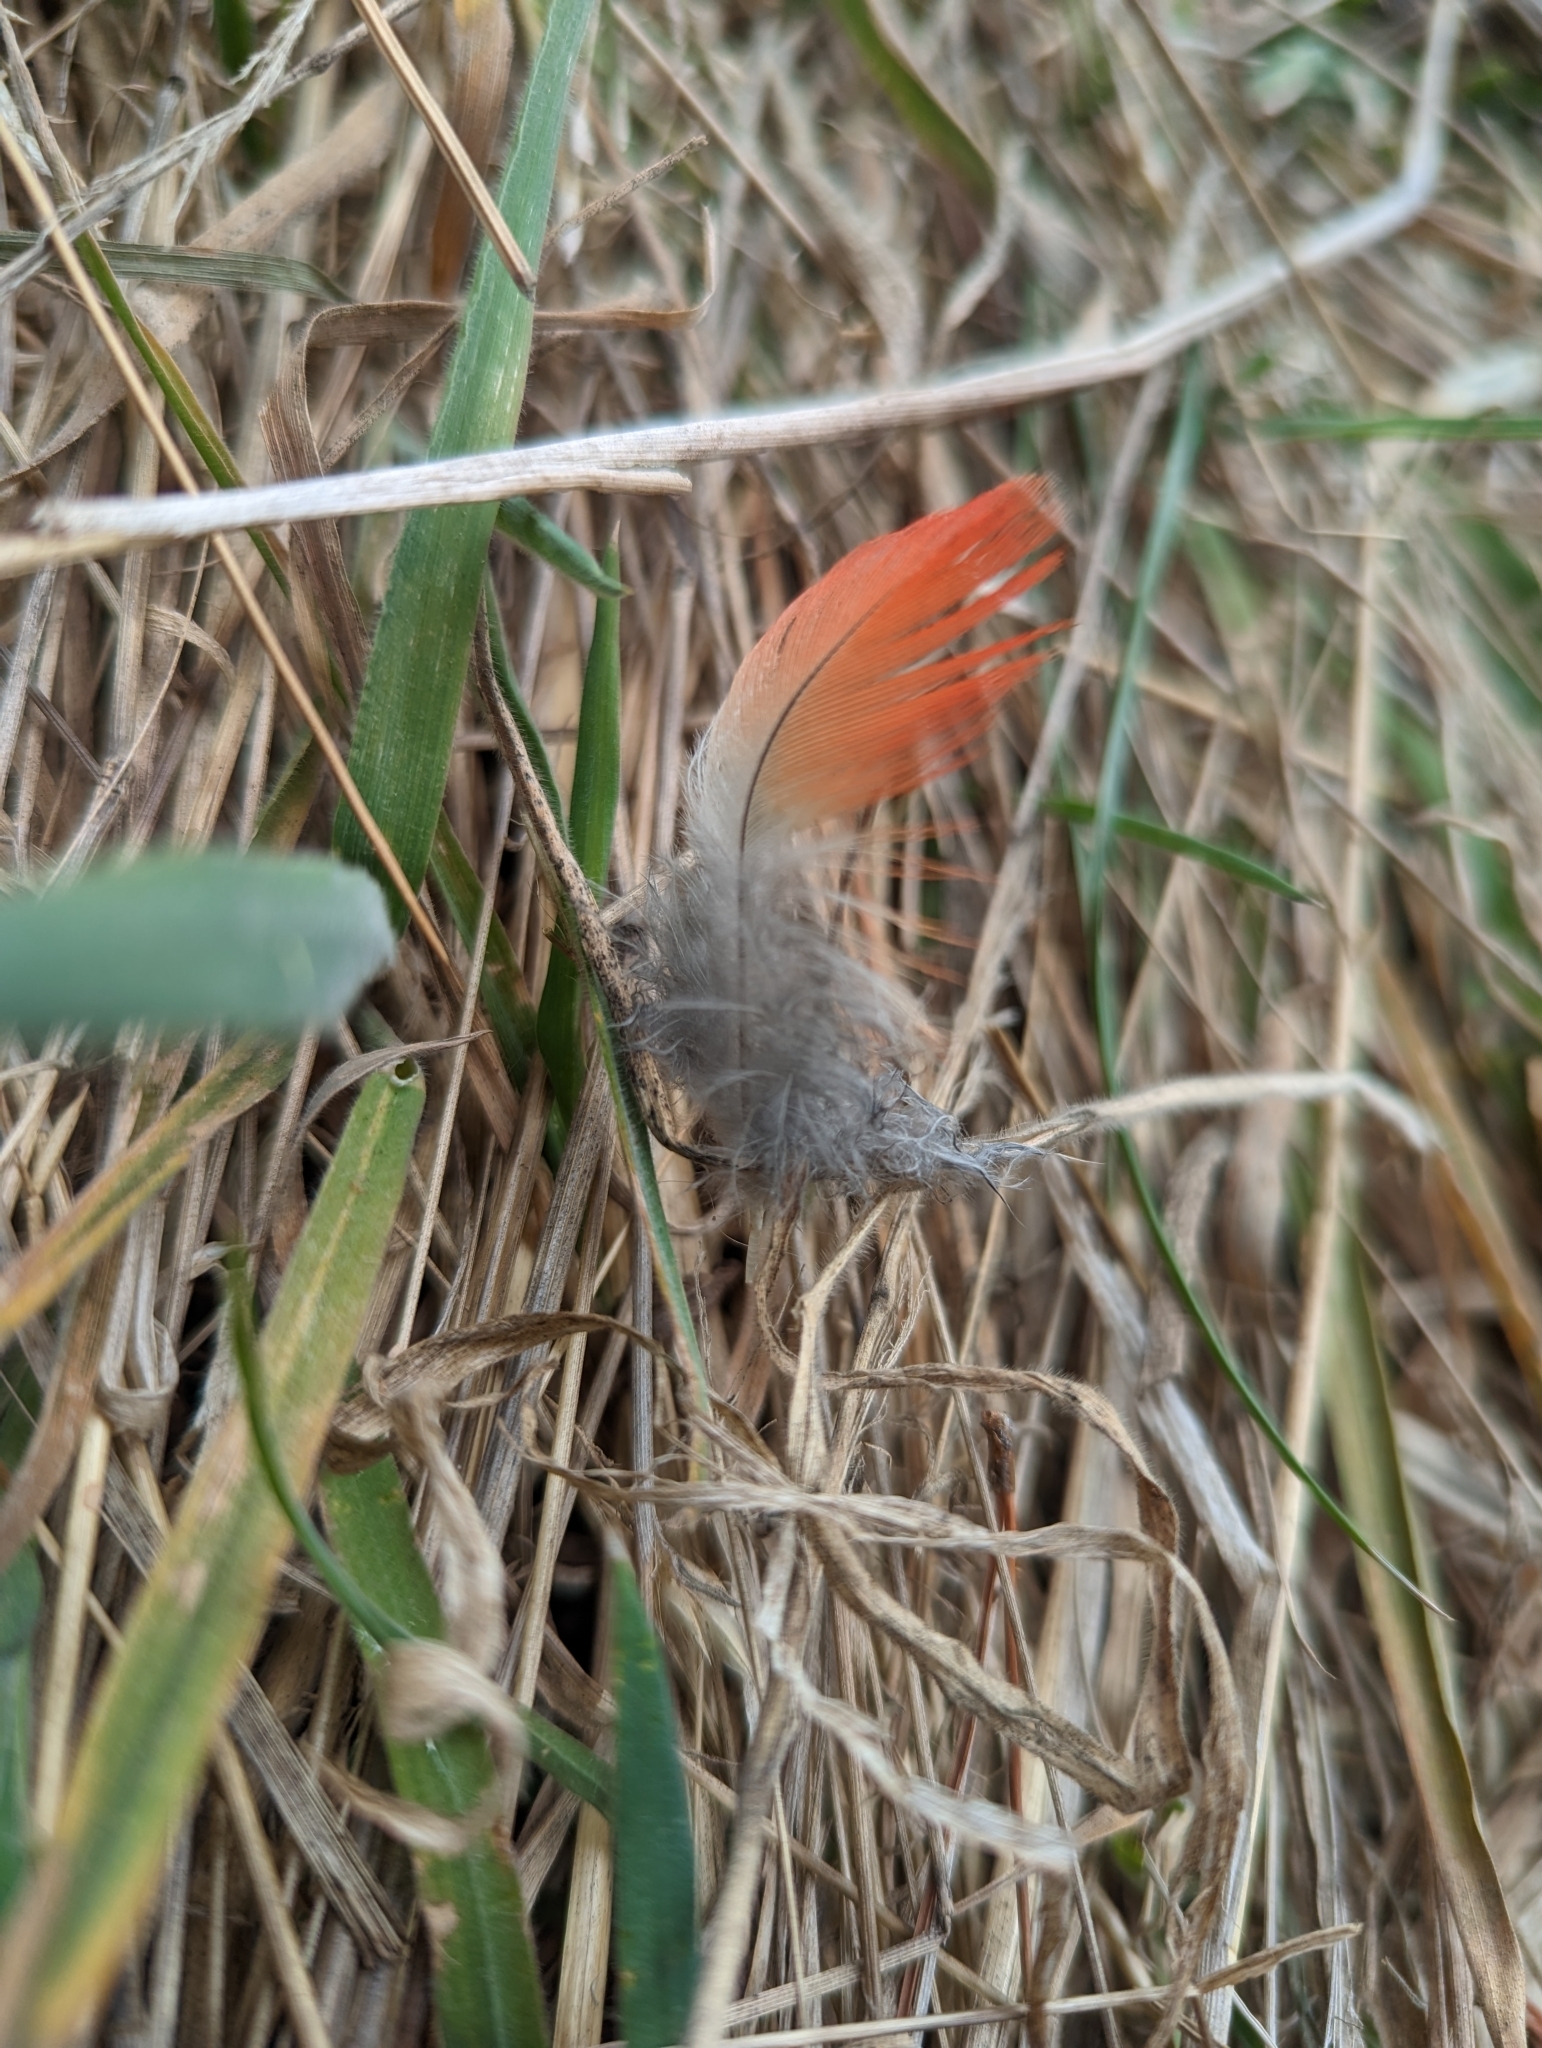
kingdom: Animalia
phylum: Chordata
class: Aves
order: Psittaciformes
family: Psittacidae
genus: Callocephalon
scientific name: Callocephalon fimbriatum
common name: Gang-gang cockatoo
